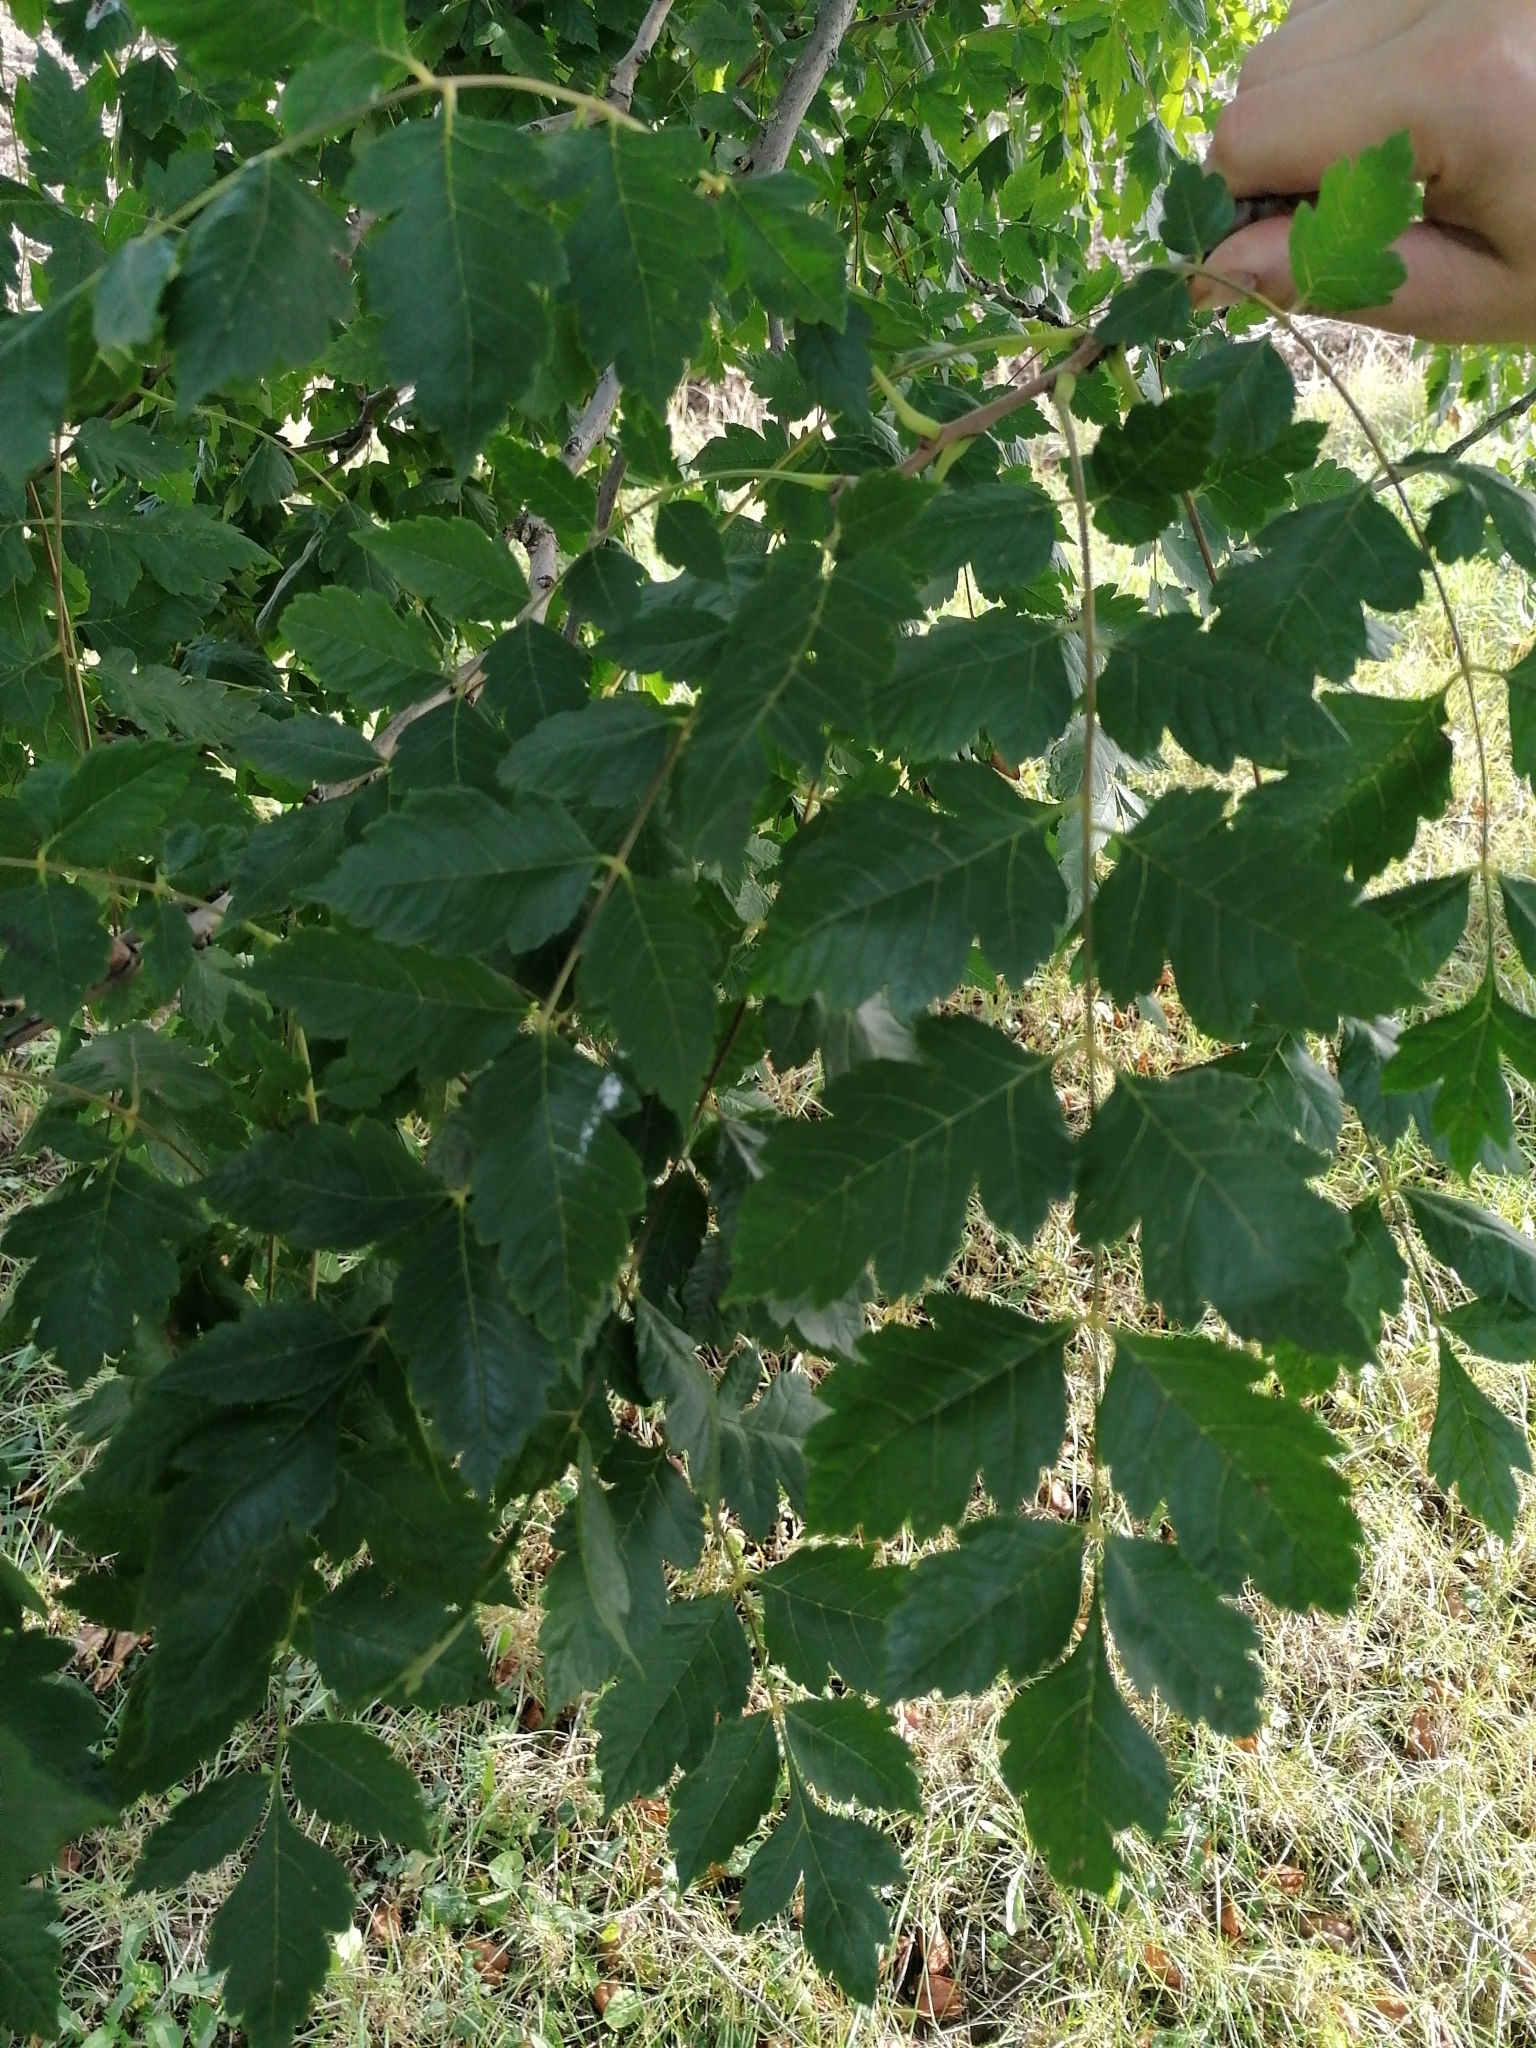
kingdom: Plantae
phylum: Tracheophyta
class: Magnoliopsida
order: Sapindales
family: Sapindaceae
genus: Koelreuteria
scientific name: Koelreuteria paniculata
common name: Pride-of-india
